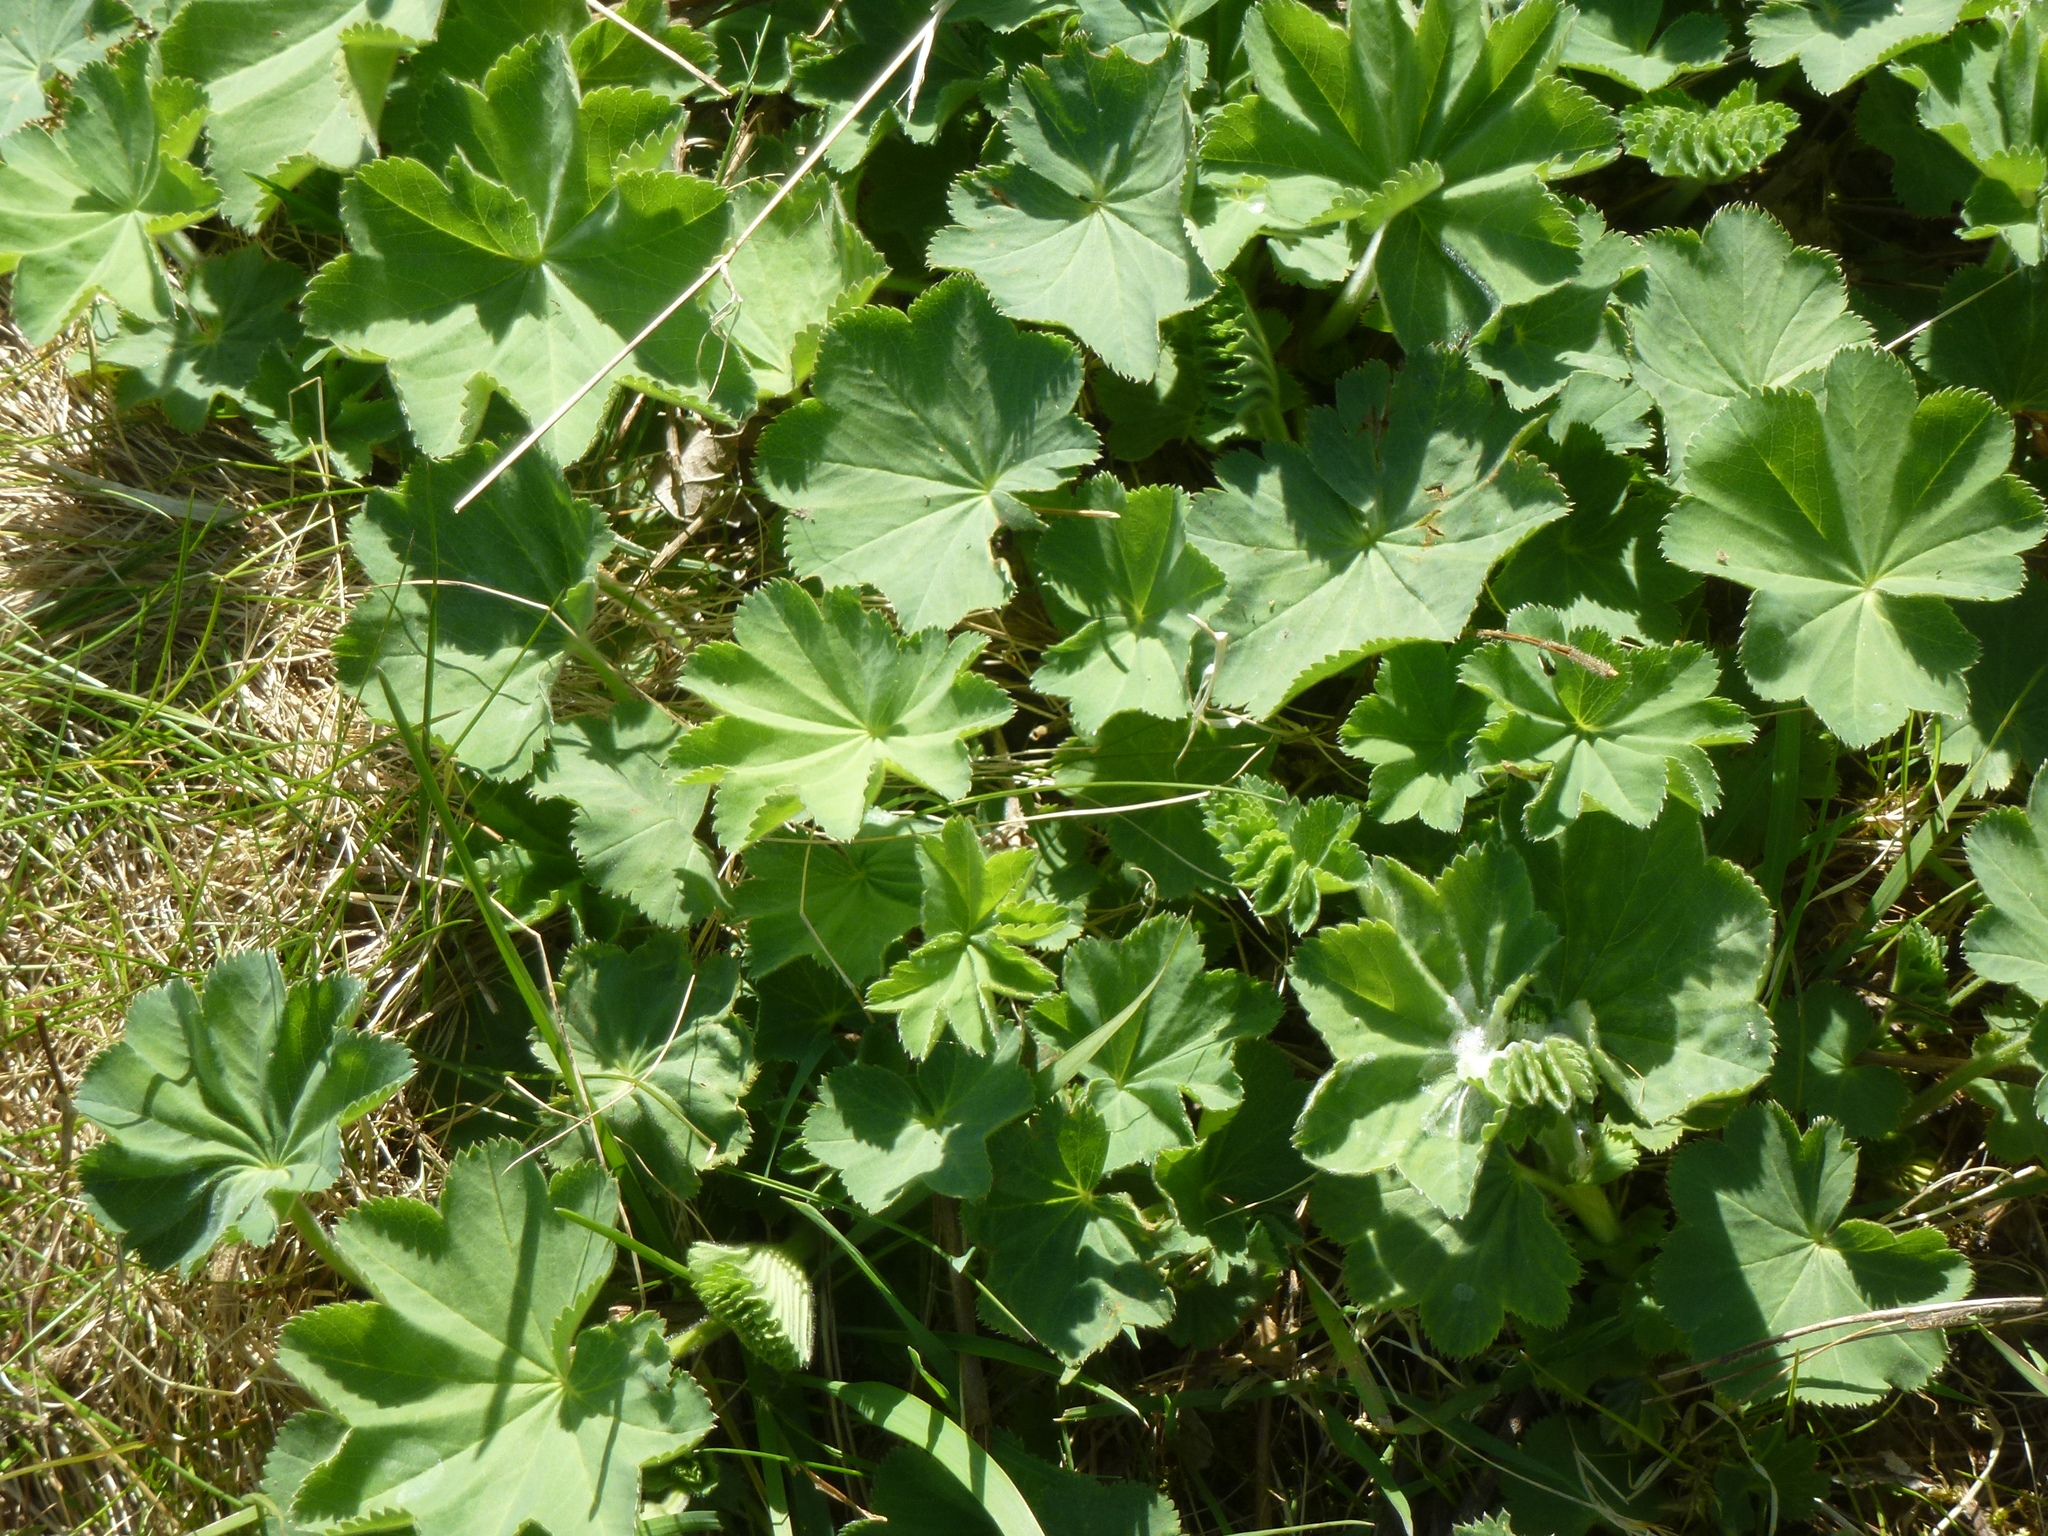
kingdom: Plantae
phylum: Tracheophyta
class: Magnoliopsida
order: Rosales
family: Rosaceae
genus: Alchemilla
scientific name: Alchemilla mollis
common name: Lady's-mantle
